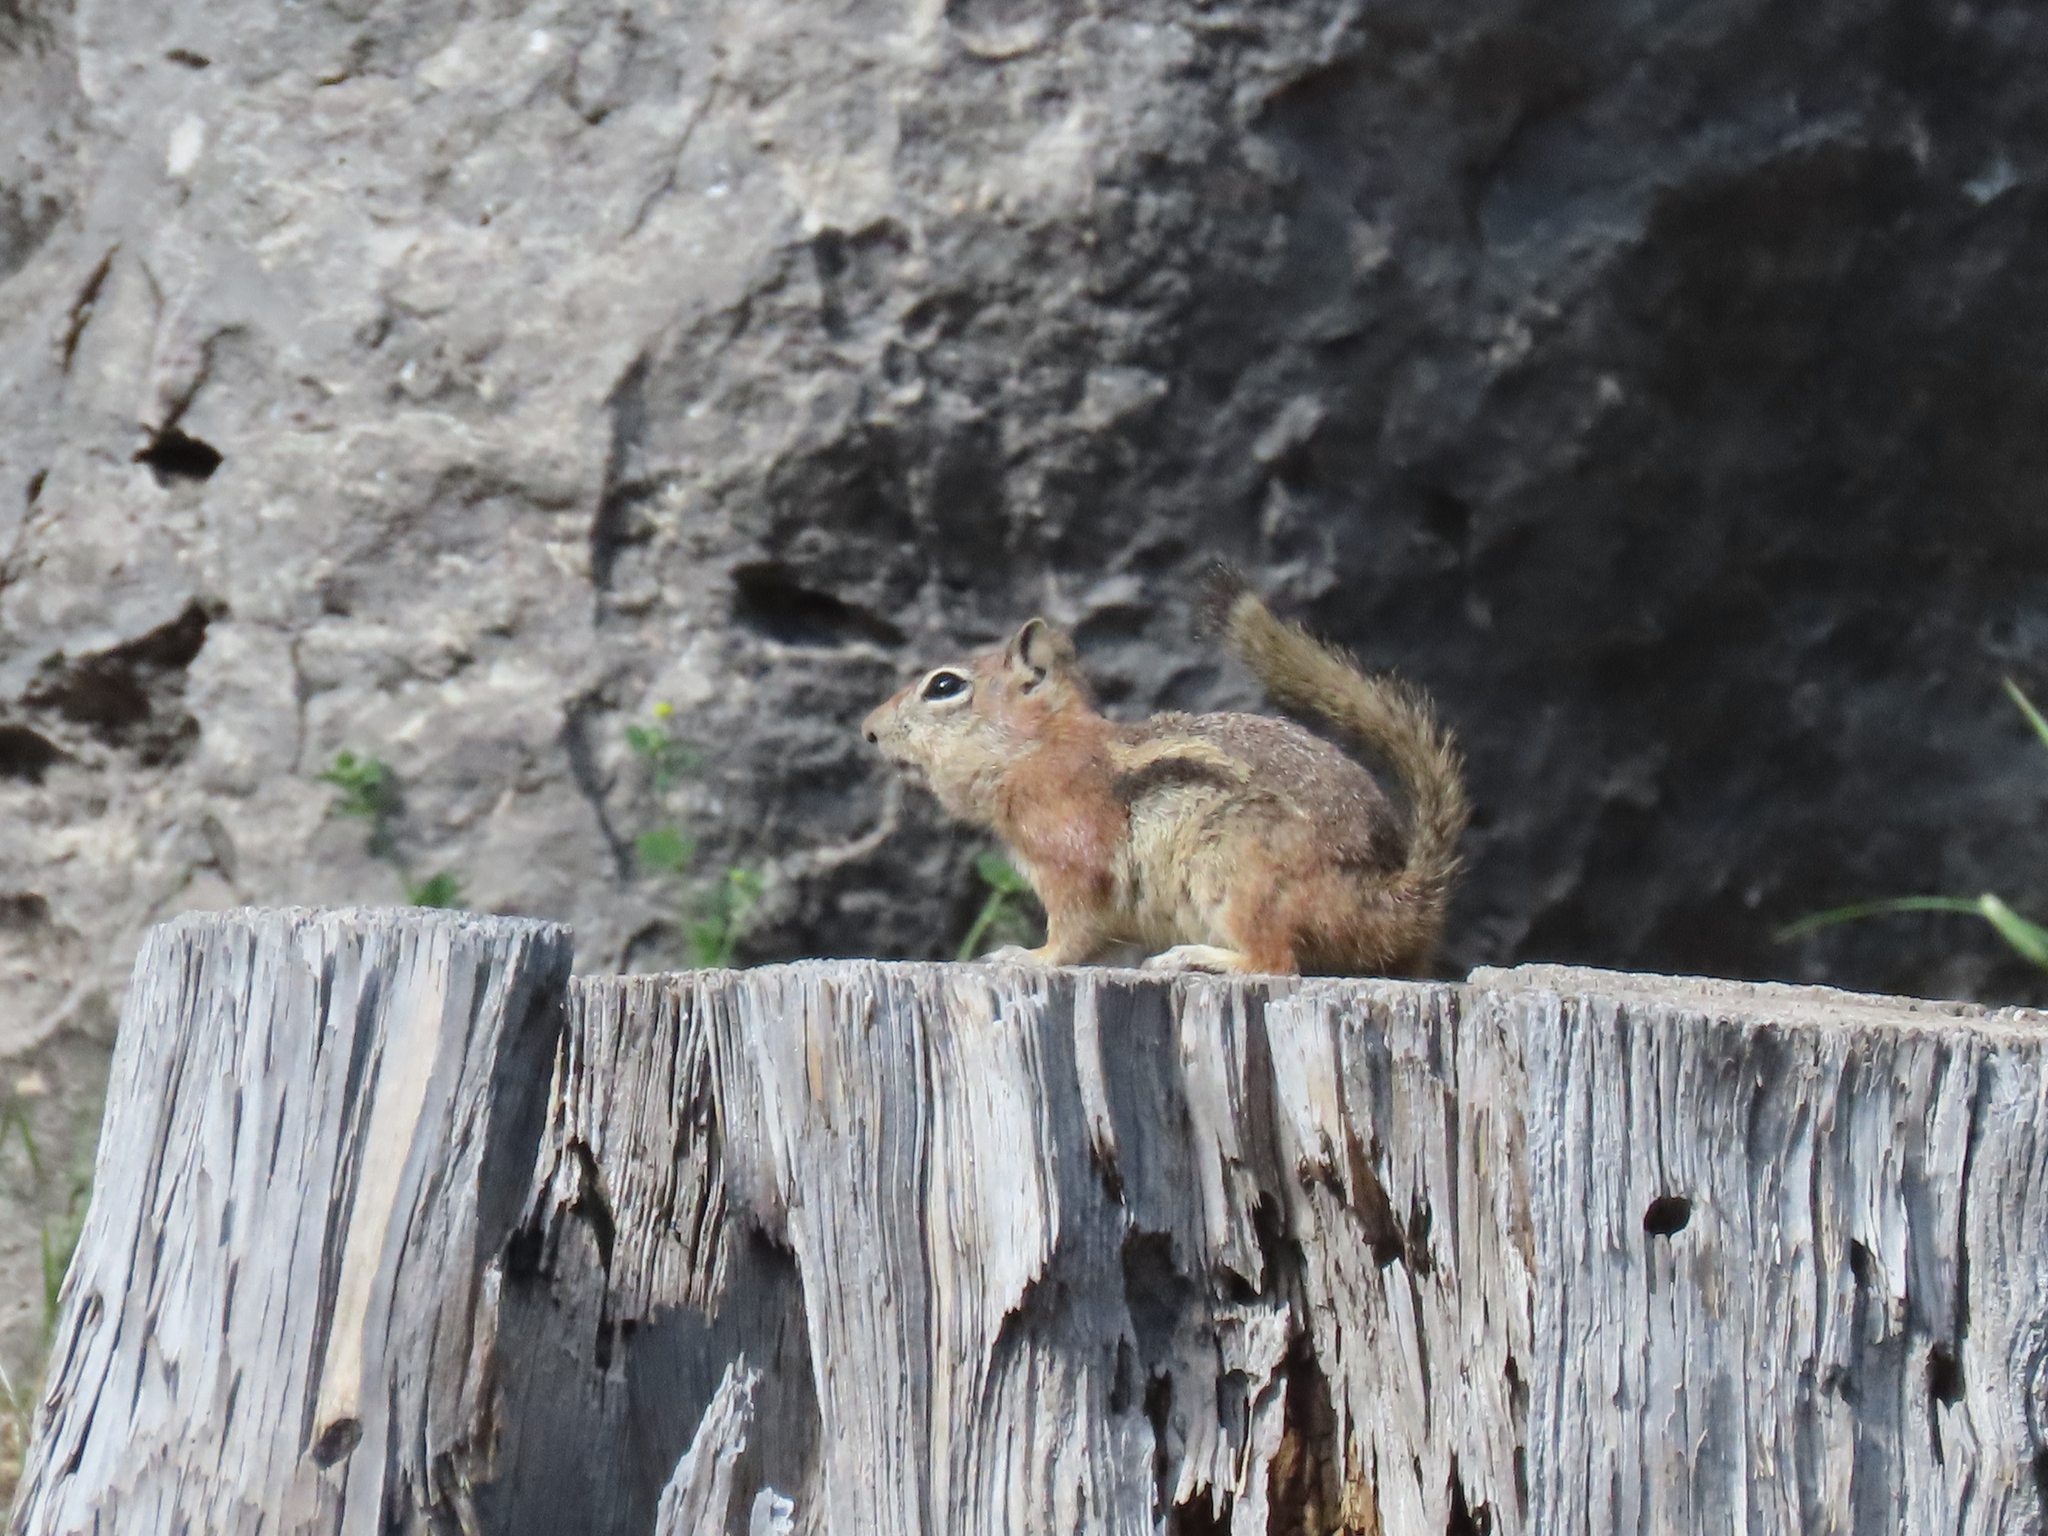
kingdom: Animalia
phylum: Chordata
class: Mammalia
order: Rodentia
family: Sciuridae
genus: Callospermophilus
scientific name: Callospermophilus lateralis
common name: Golden-mantled ground squirrel
